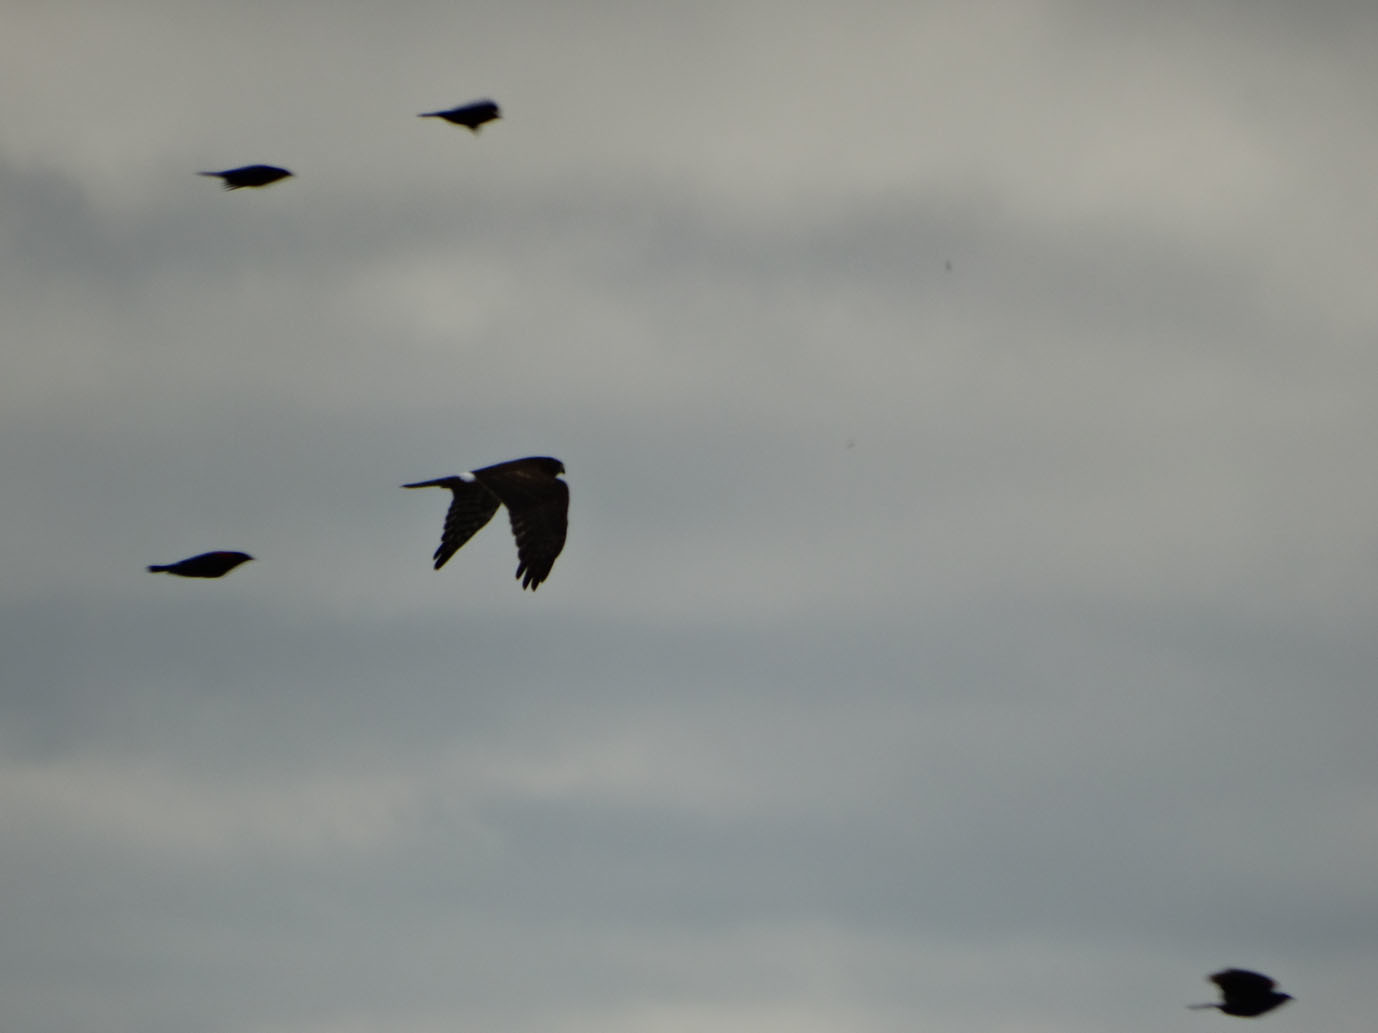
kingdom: Animalia
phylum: Chordata
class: Aves
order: Accipitriformes
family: Accipitridae
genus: Circus
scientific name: Circus cyaneus
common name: Hen harrier
